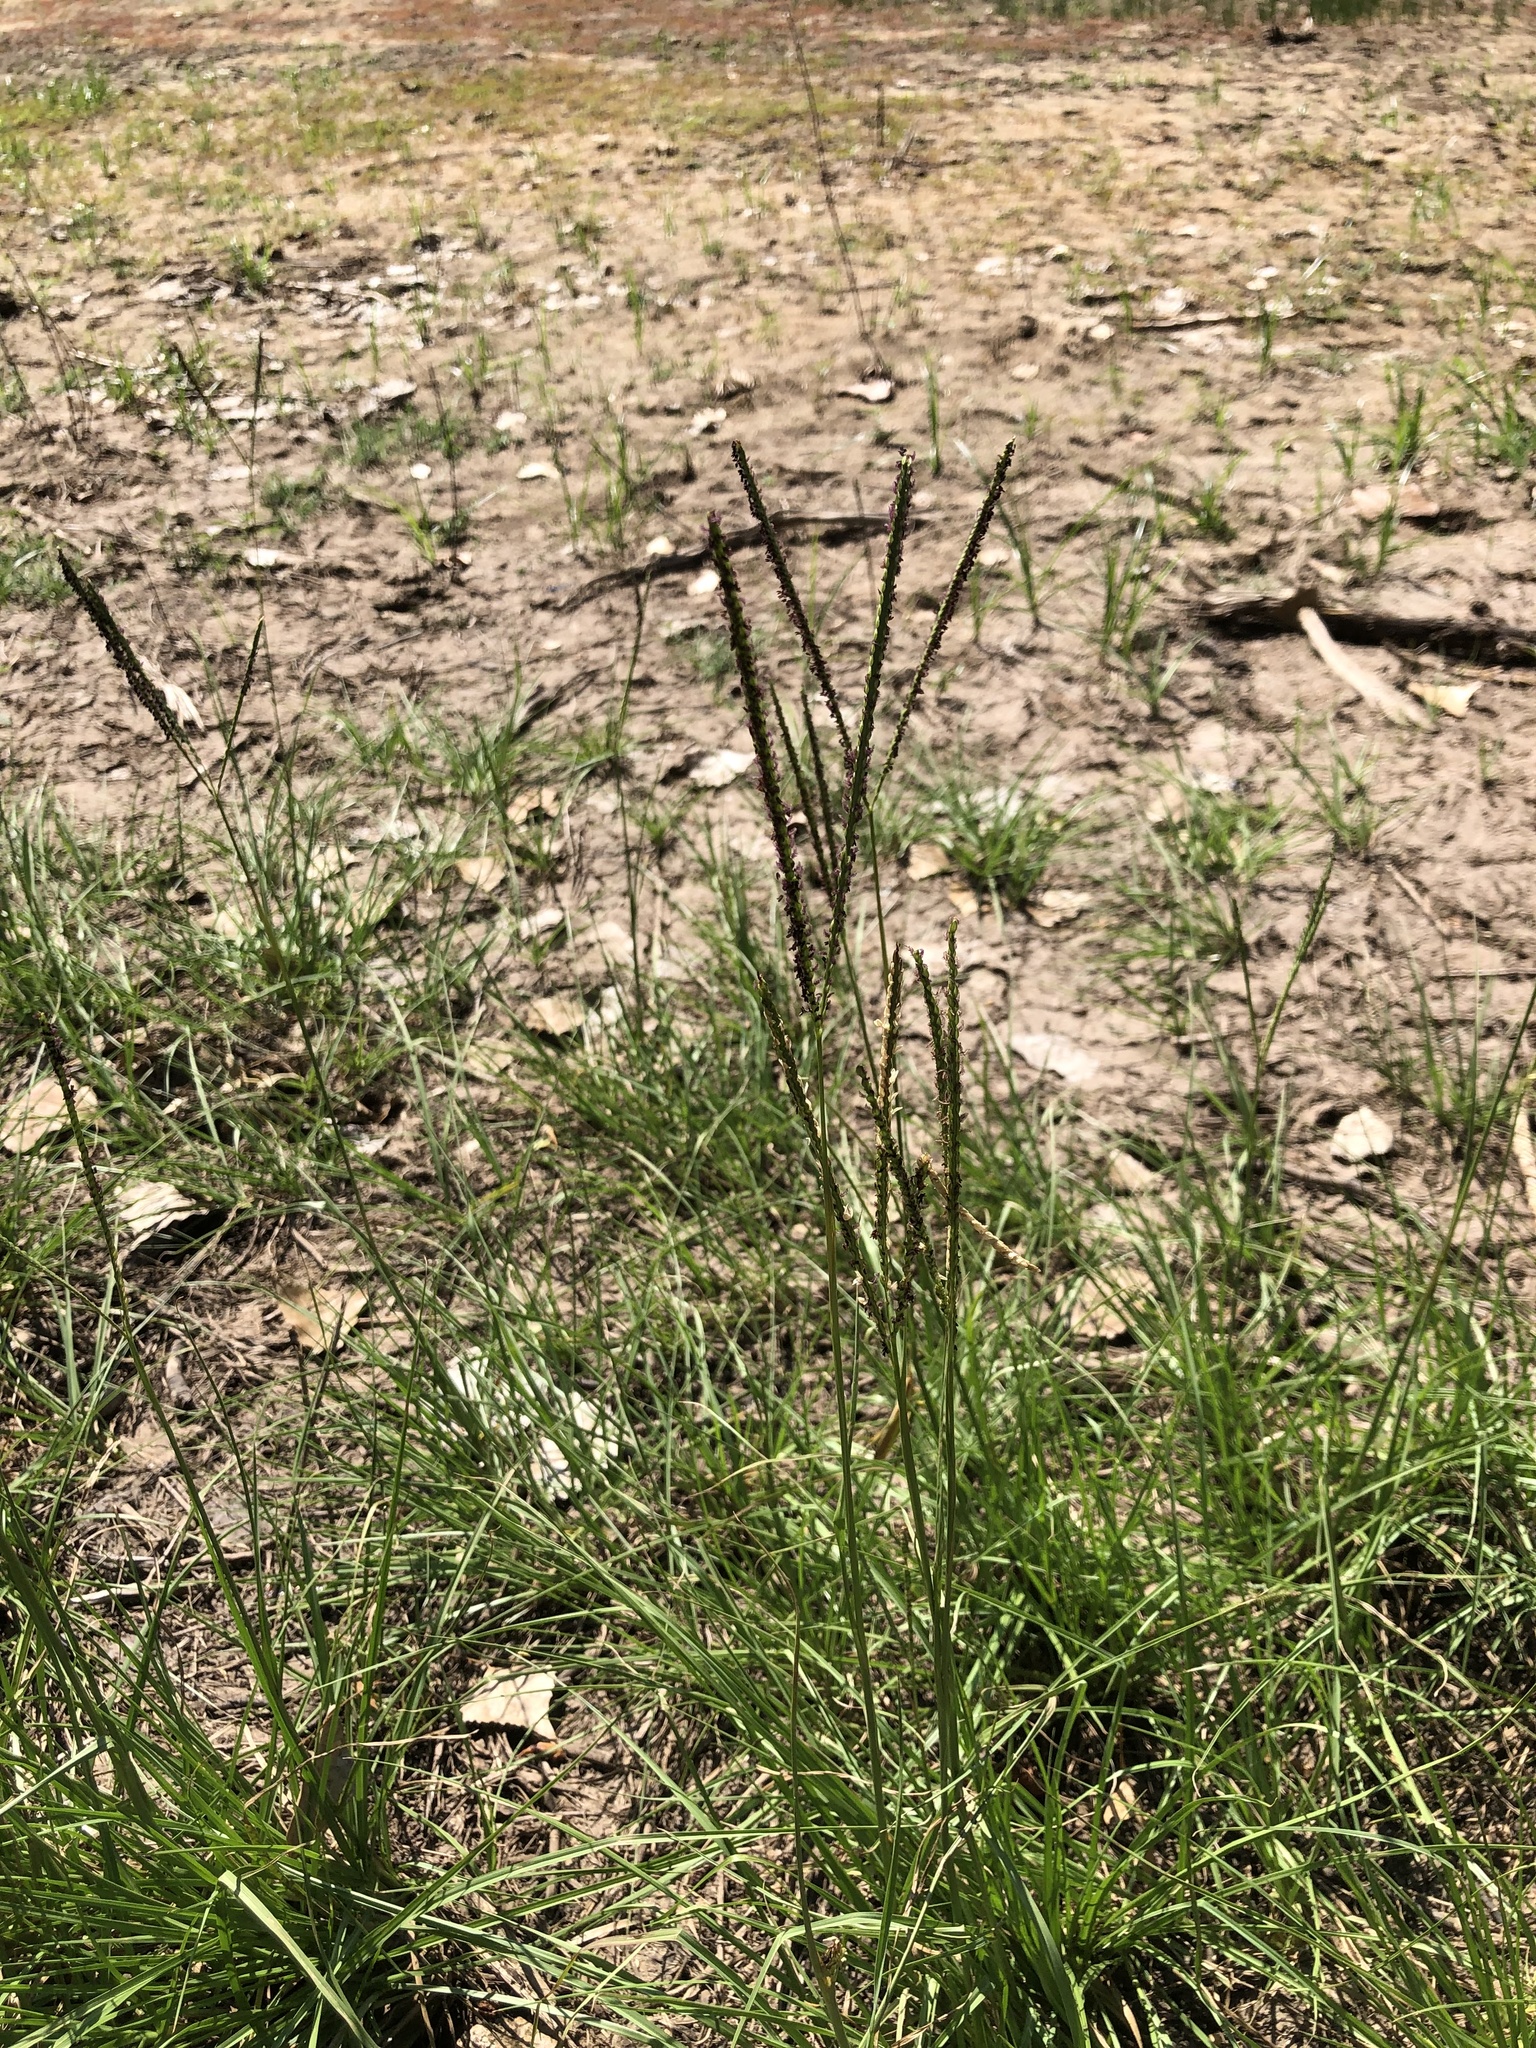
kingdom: Plantae
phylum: Tracheophyta
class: Liliopsida
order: Poales
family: Poaceae
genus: Paspalum
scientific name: Paspalum notatum
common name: Bahiagrass
